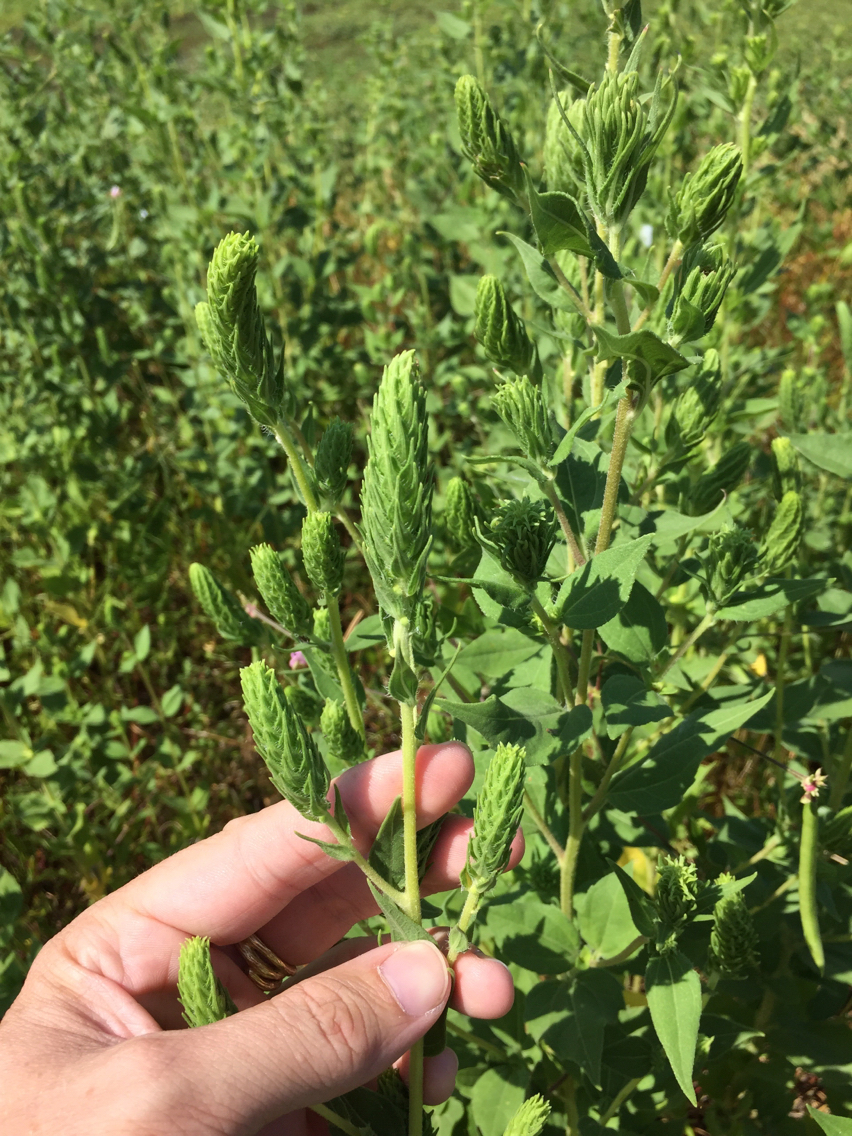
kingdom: Plantae
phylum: Tracheophyta
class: Magnoliopsida
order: Asterales
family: Asteraceae
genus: Iva
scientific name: Iva annua
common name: Marsh-elder
